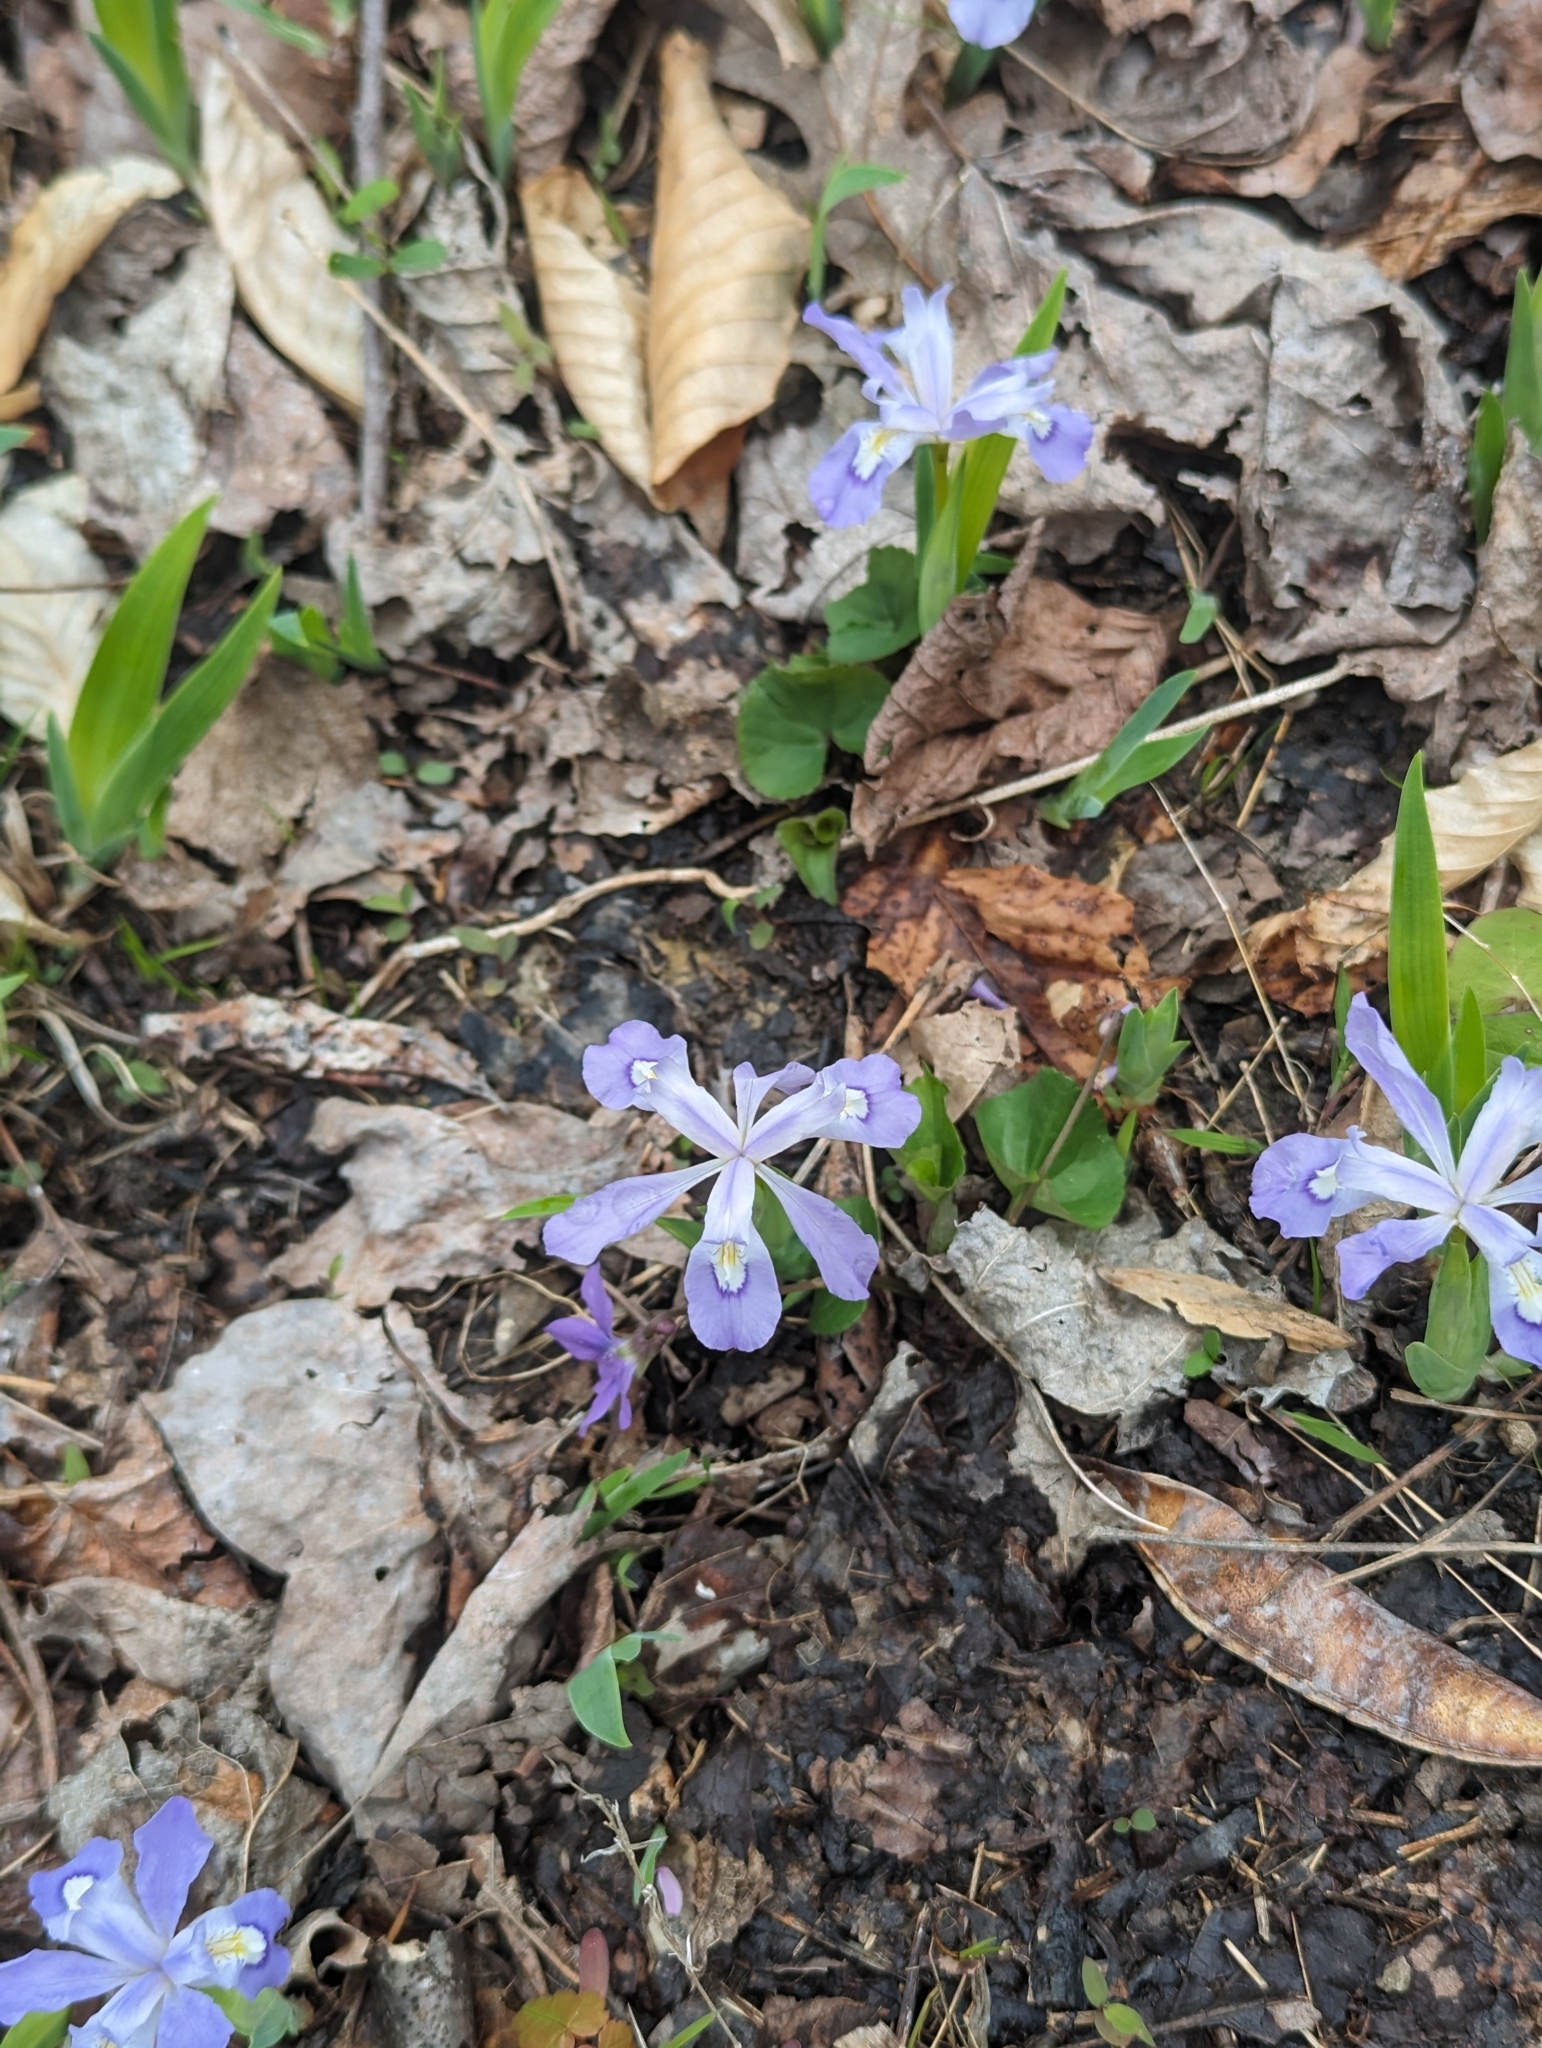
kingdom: Plantae
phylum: Tracheophyta
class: Liliopsida
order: Asparagales
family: Iridaceae
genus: Iris
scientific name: Iris cristata
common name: Crested iris
